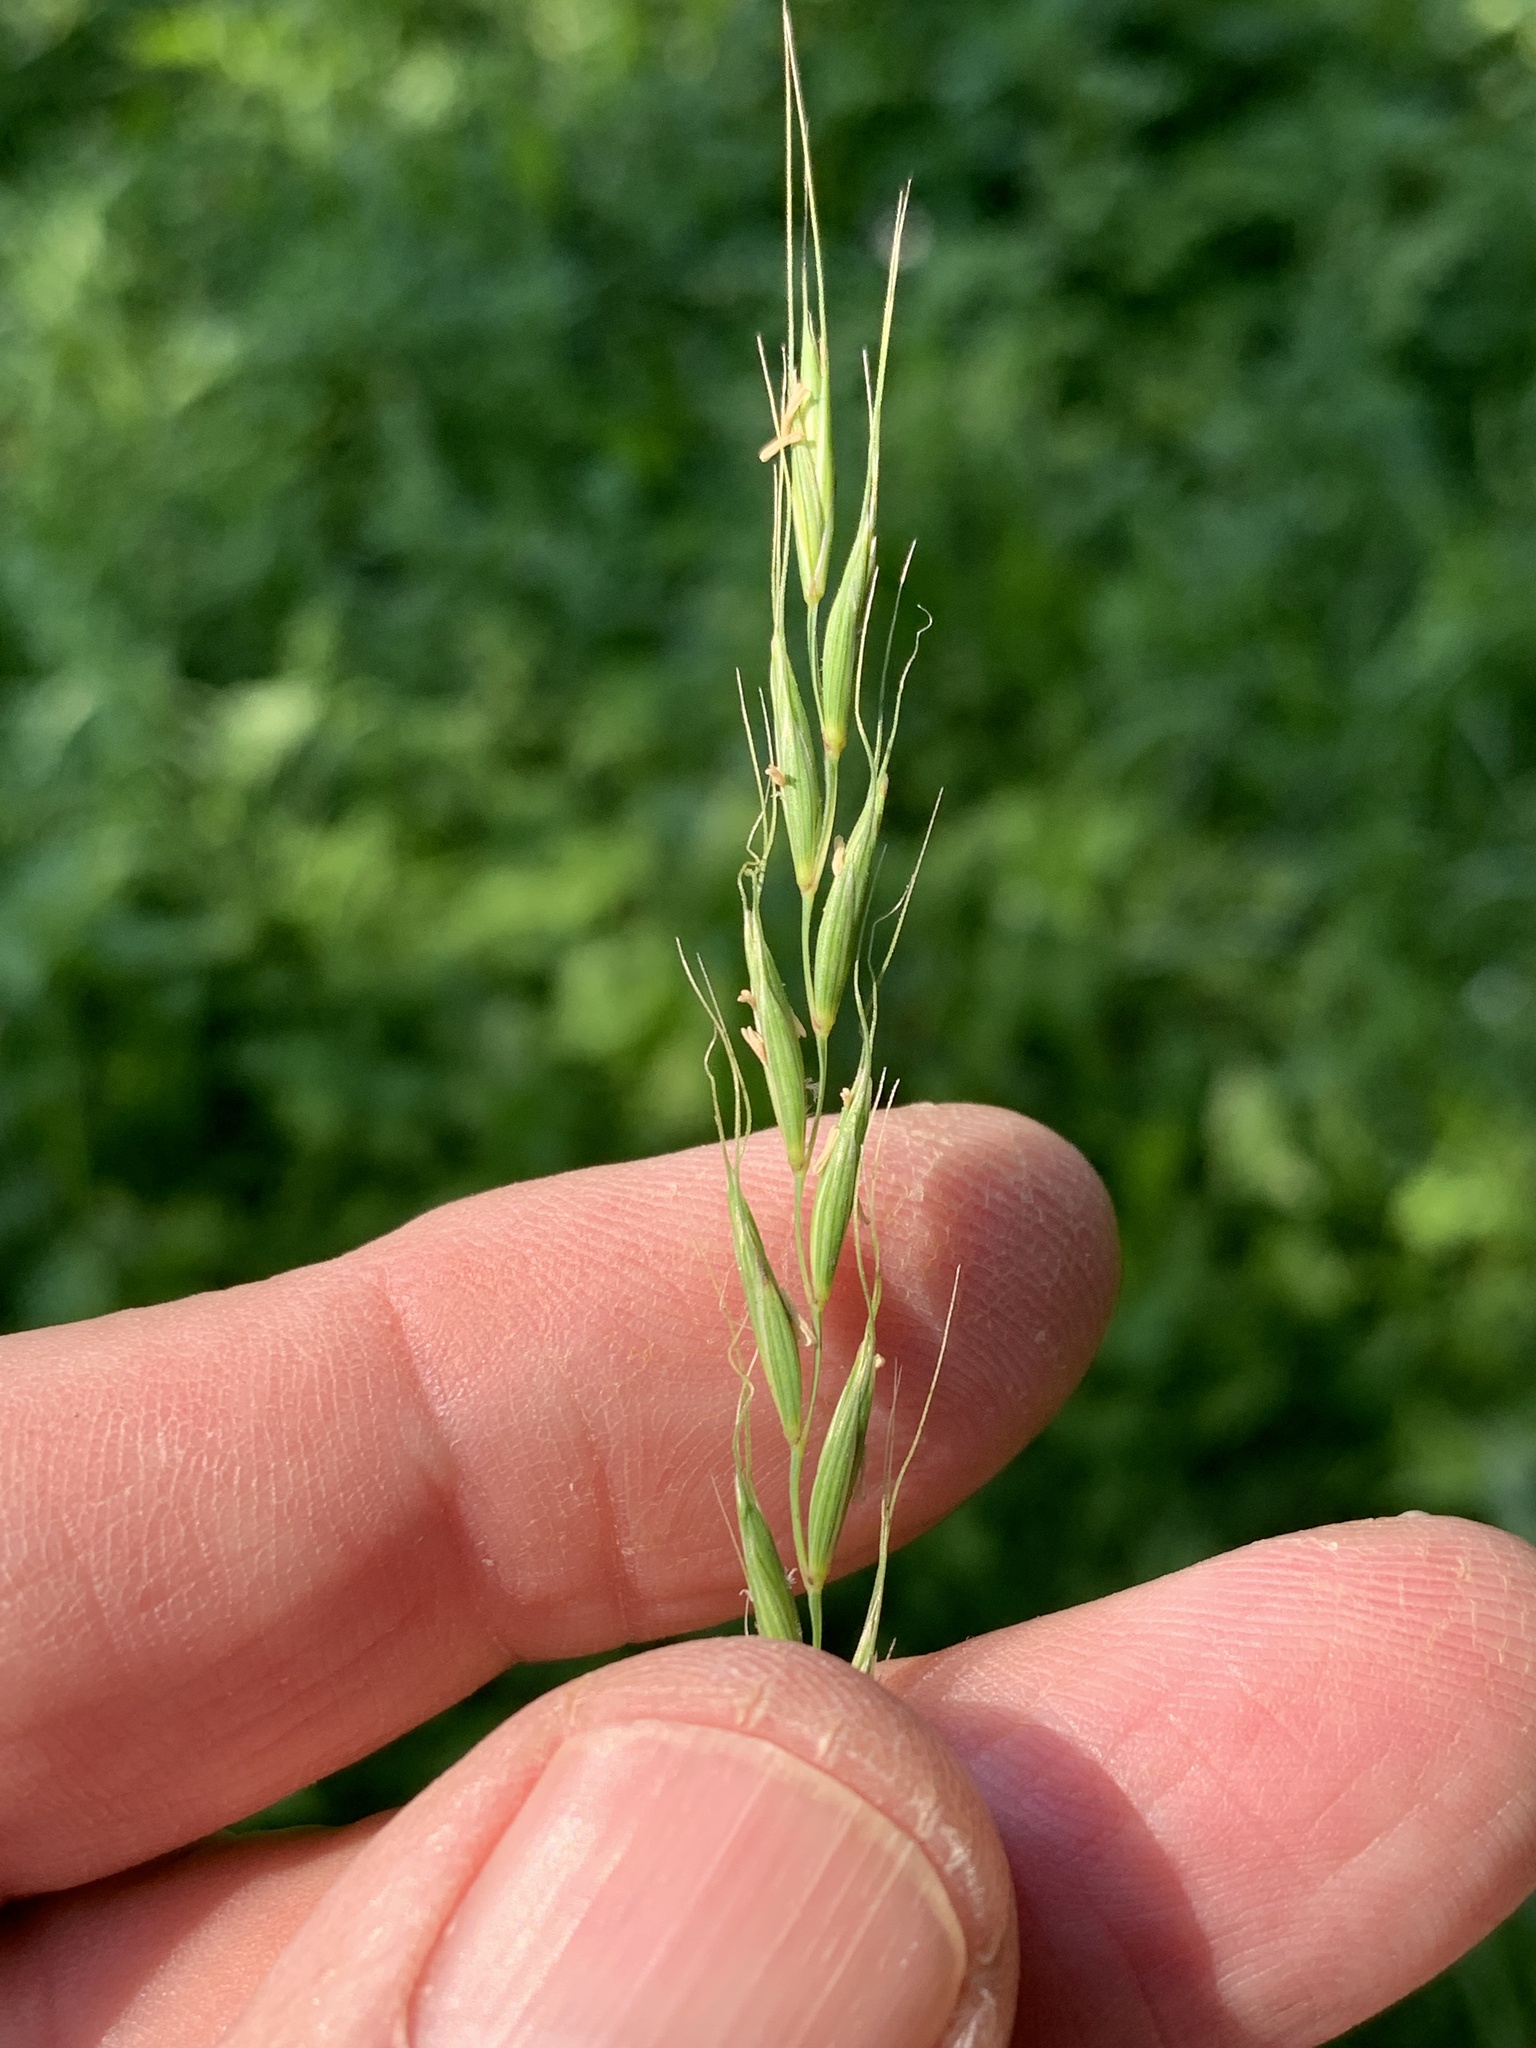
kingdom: Plantae
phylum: Tracheophyta
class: Liliopsida
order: Poales
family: Poaceae
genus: Elymus
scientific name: Elymus caninus
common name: Bearded couch
